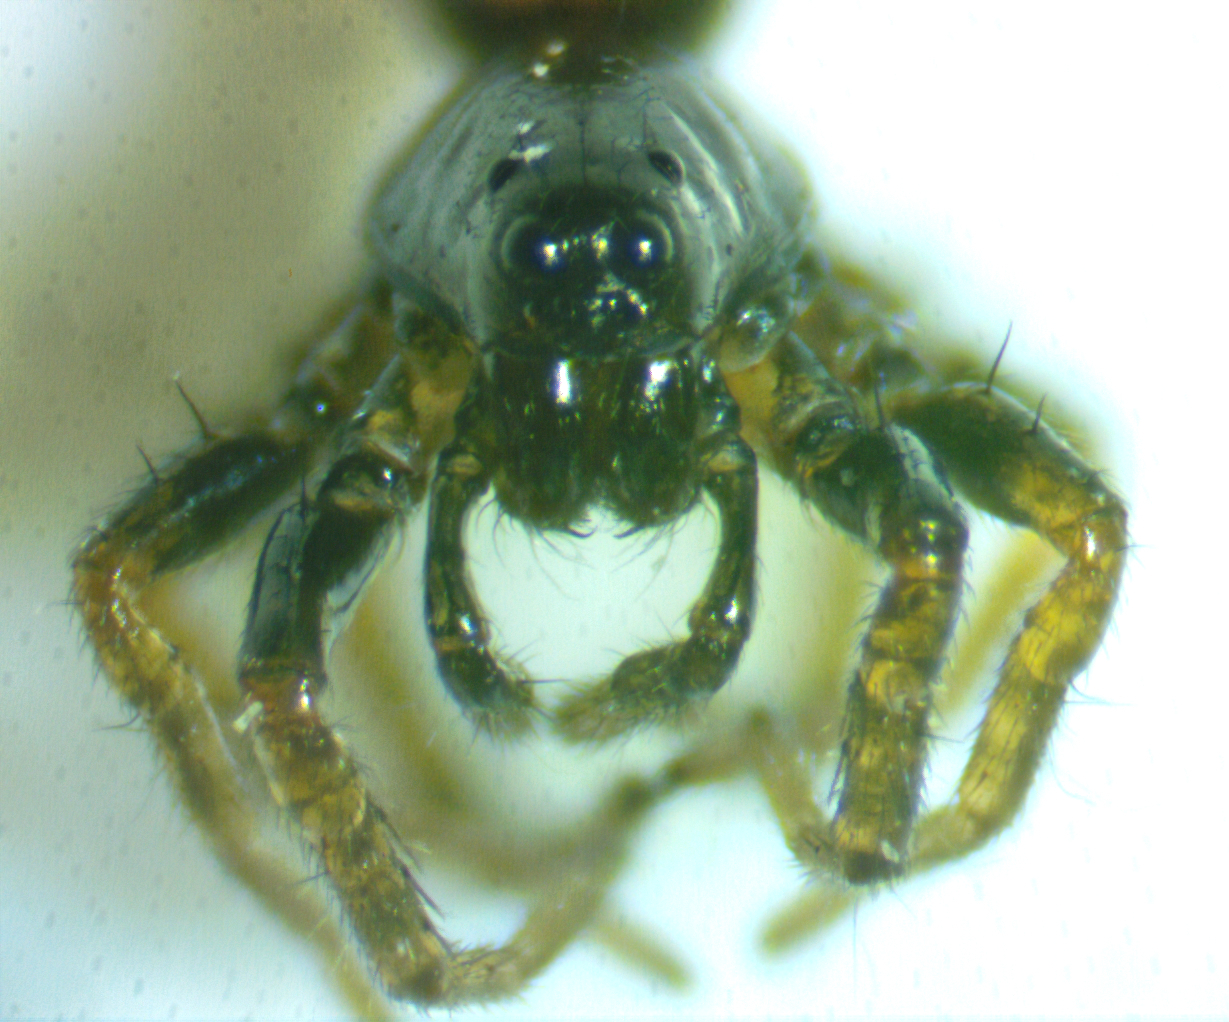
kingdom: Animalia
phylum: Arthropoda
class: Arachnida
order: Araneae
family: Lycosidae
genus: Allocosa
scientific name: Allocosa funerea
